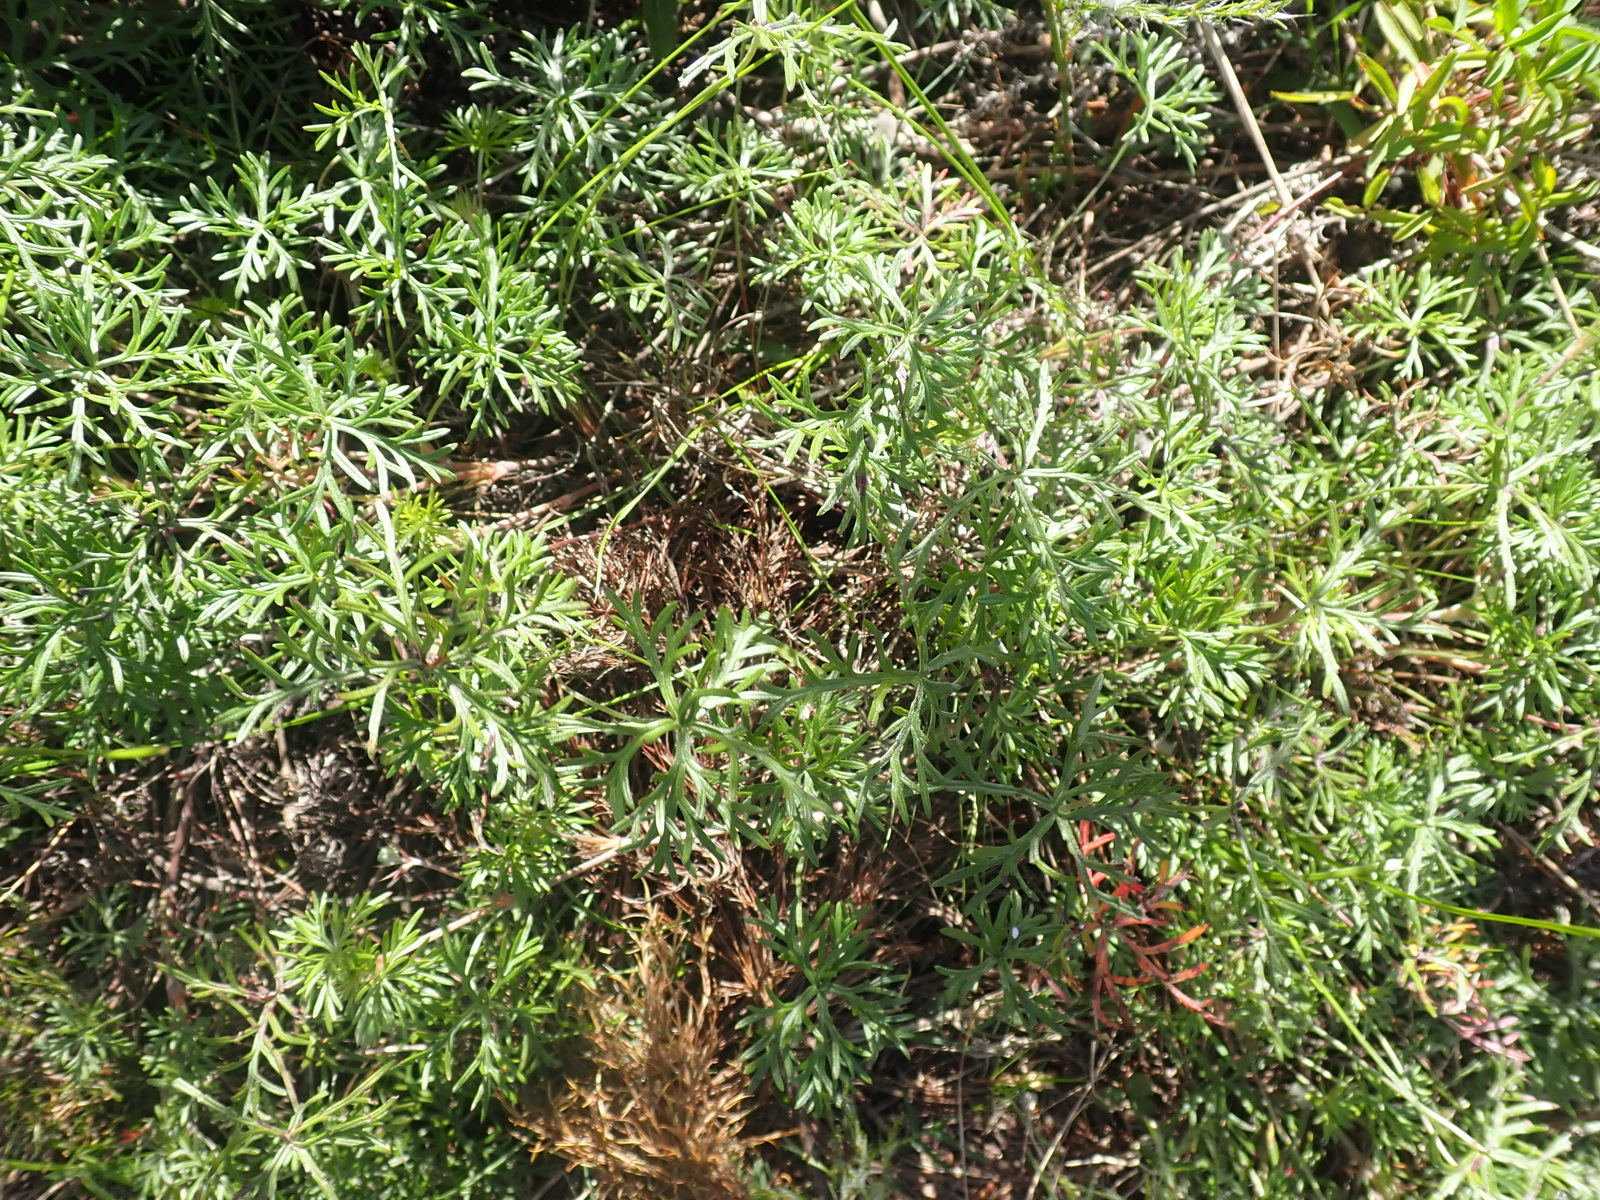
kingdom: Plantae
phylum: Tracheophyta
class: Magnoliopsida
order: Geraniales
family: Geraniaceae
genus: Geranium
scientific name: Geranium incanum
